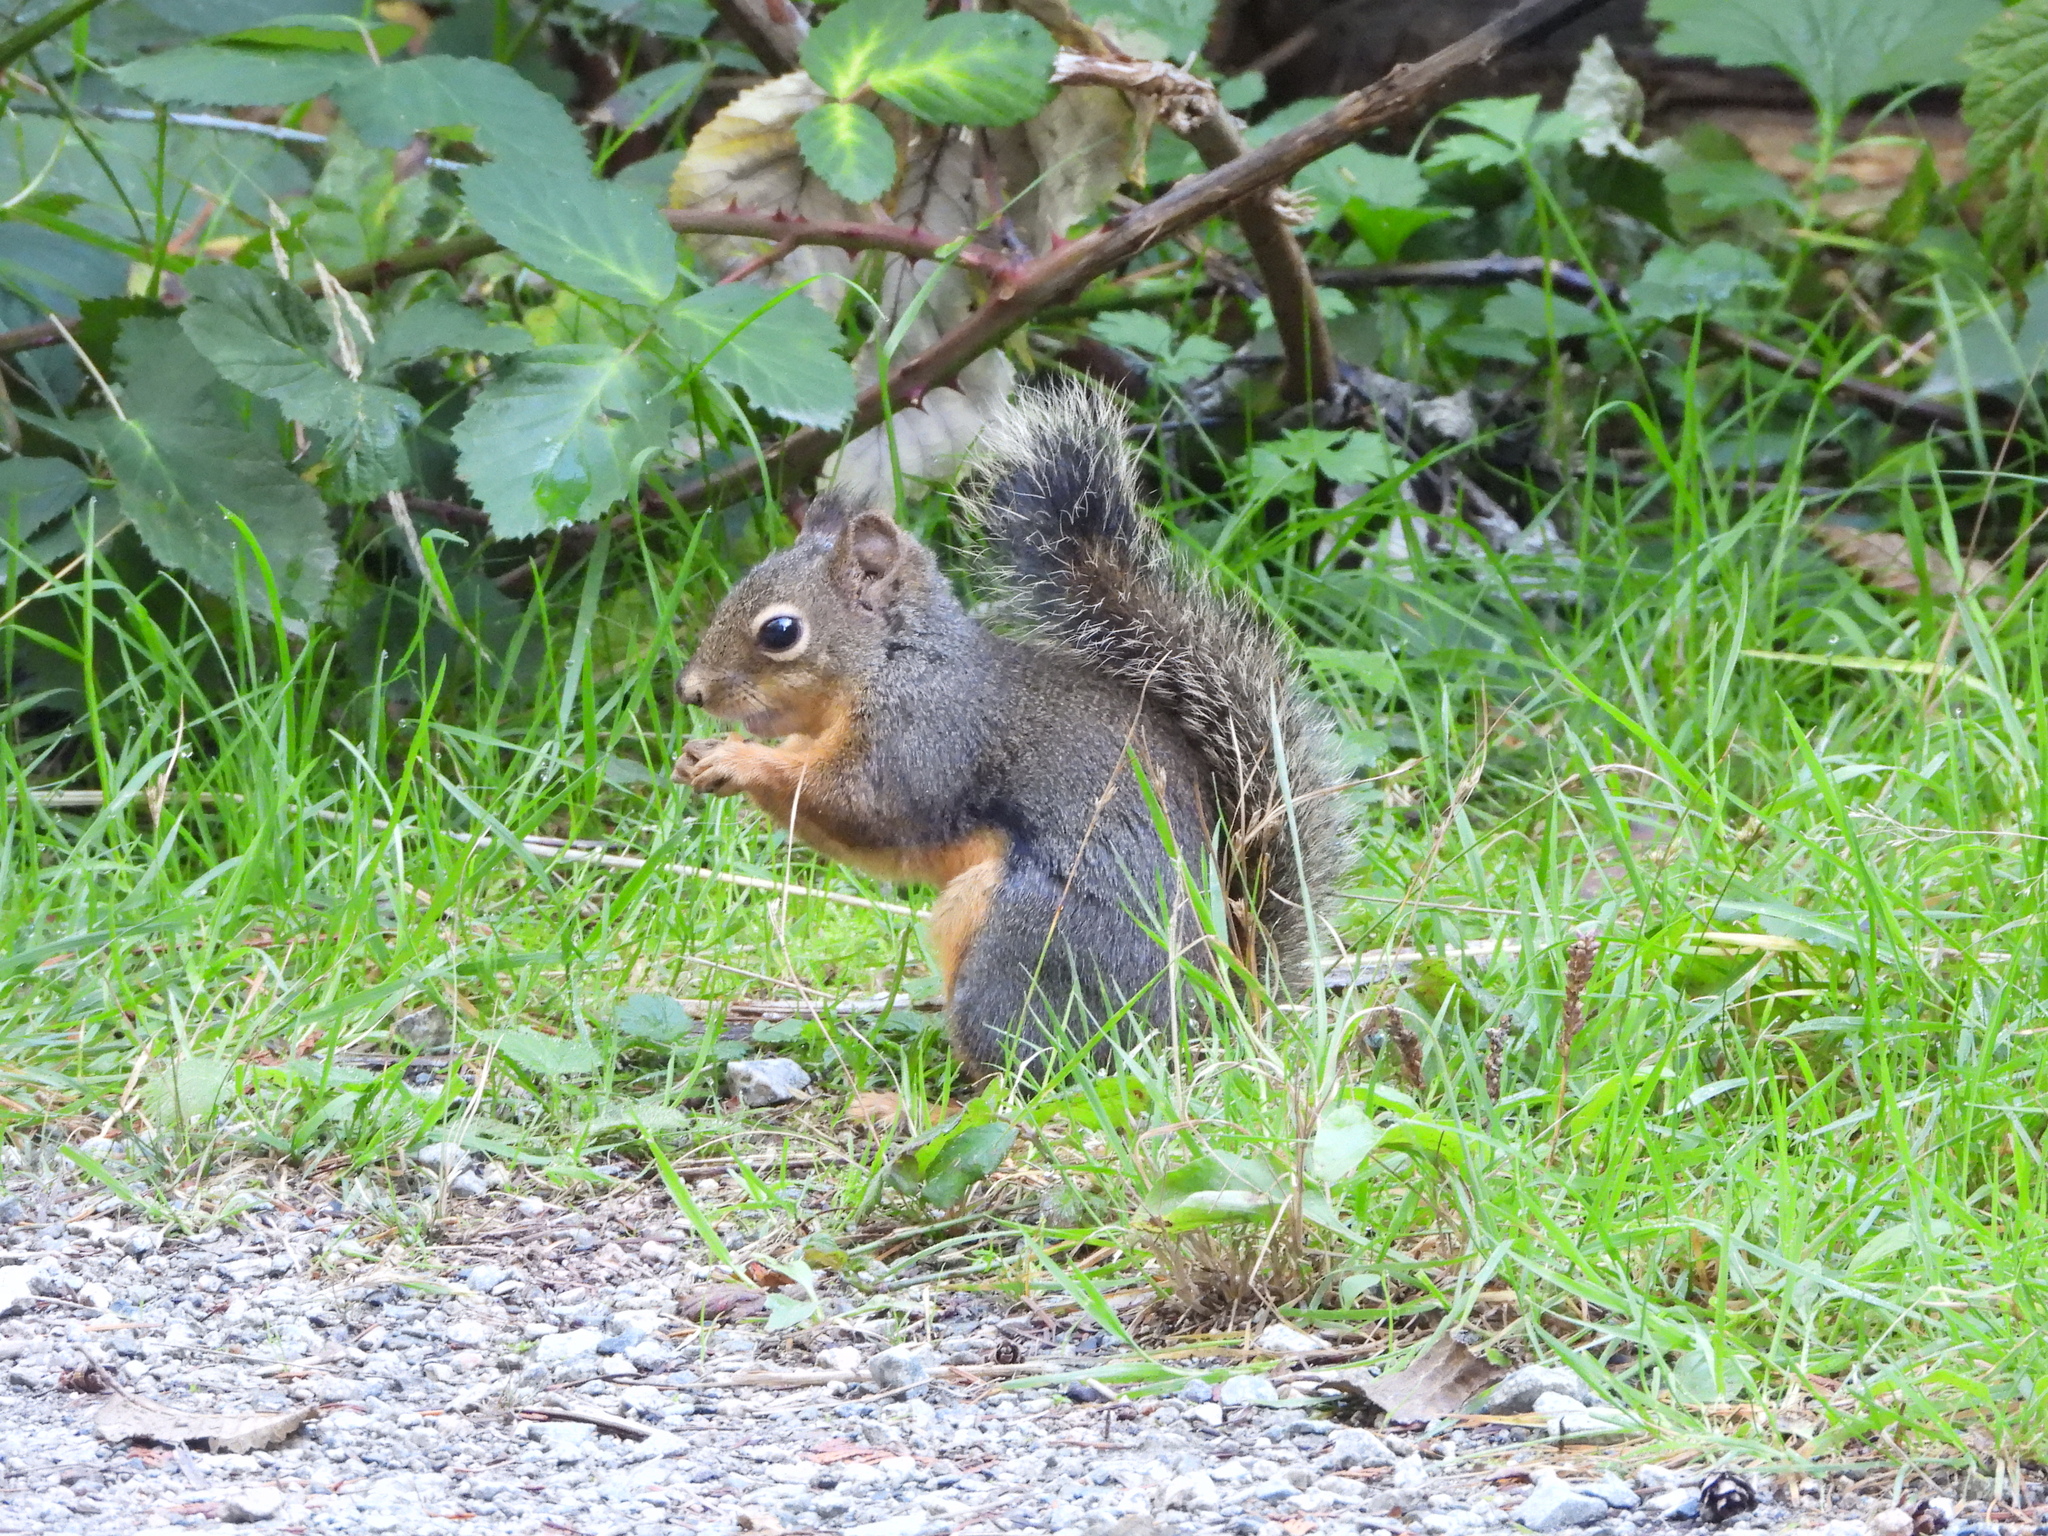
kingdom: Animalia
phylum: Chordata
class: Mammalia
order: Rodentia
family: Sciuridae
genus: Tamiasciurus
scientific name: Tamiasciurus douglasii
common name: Douglas's squirrel
